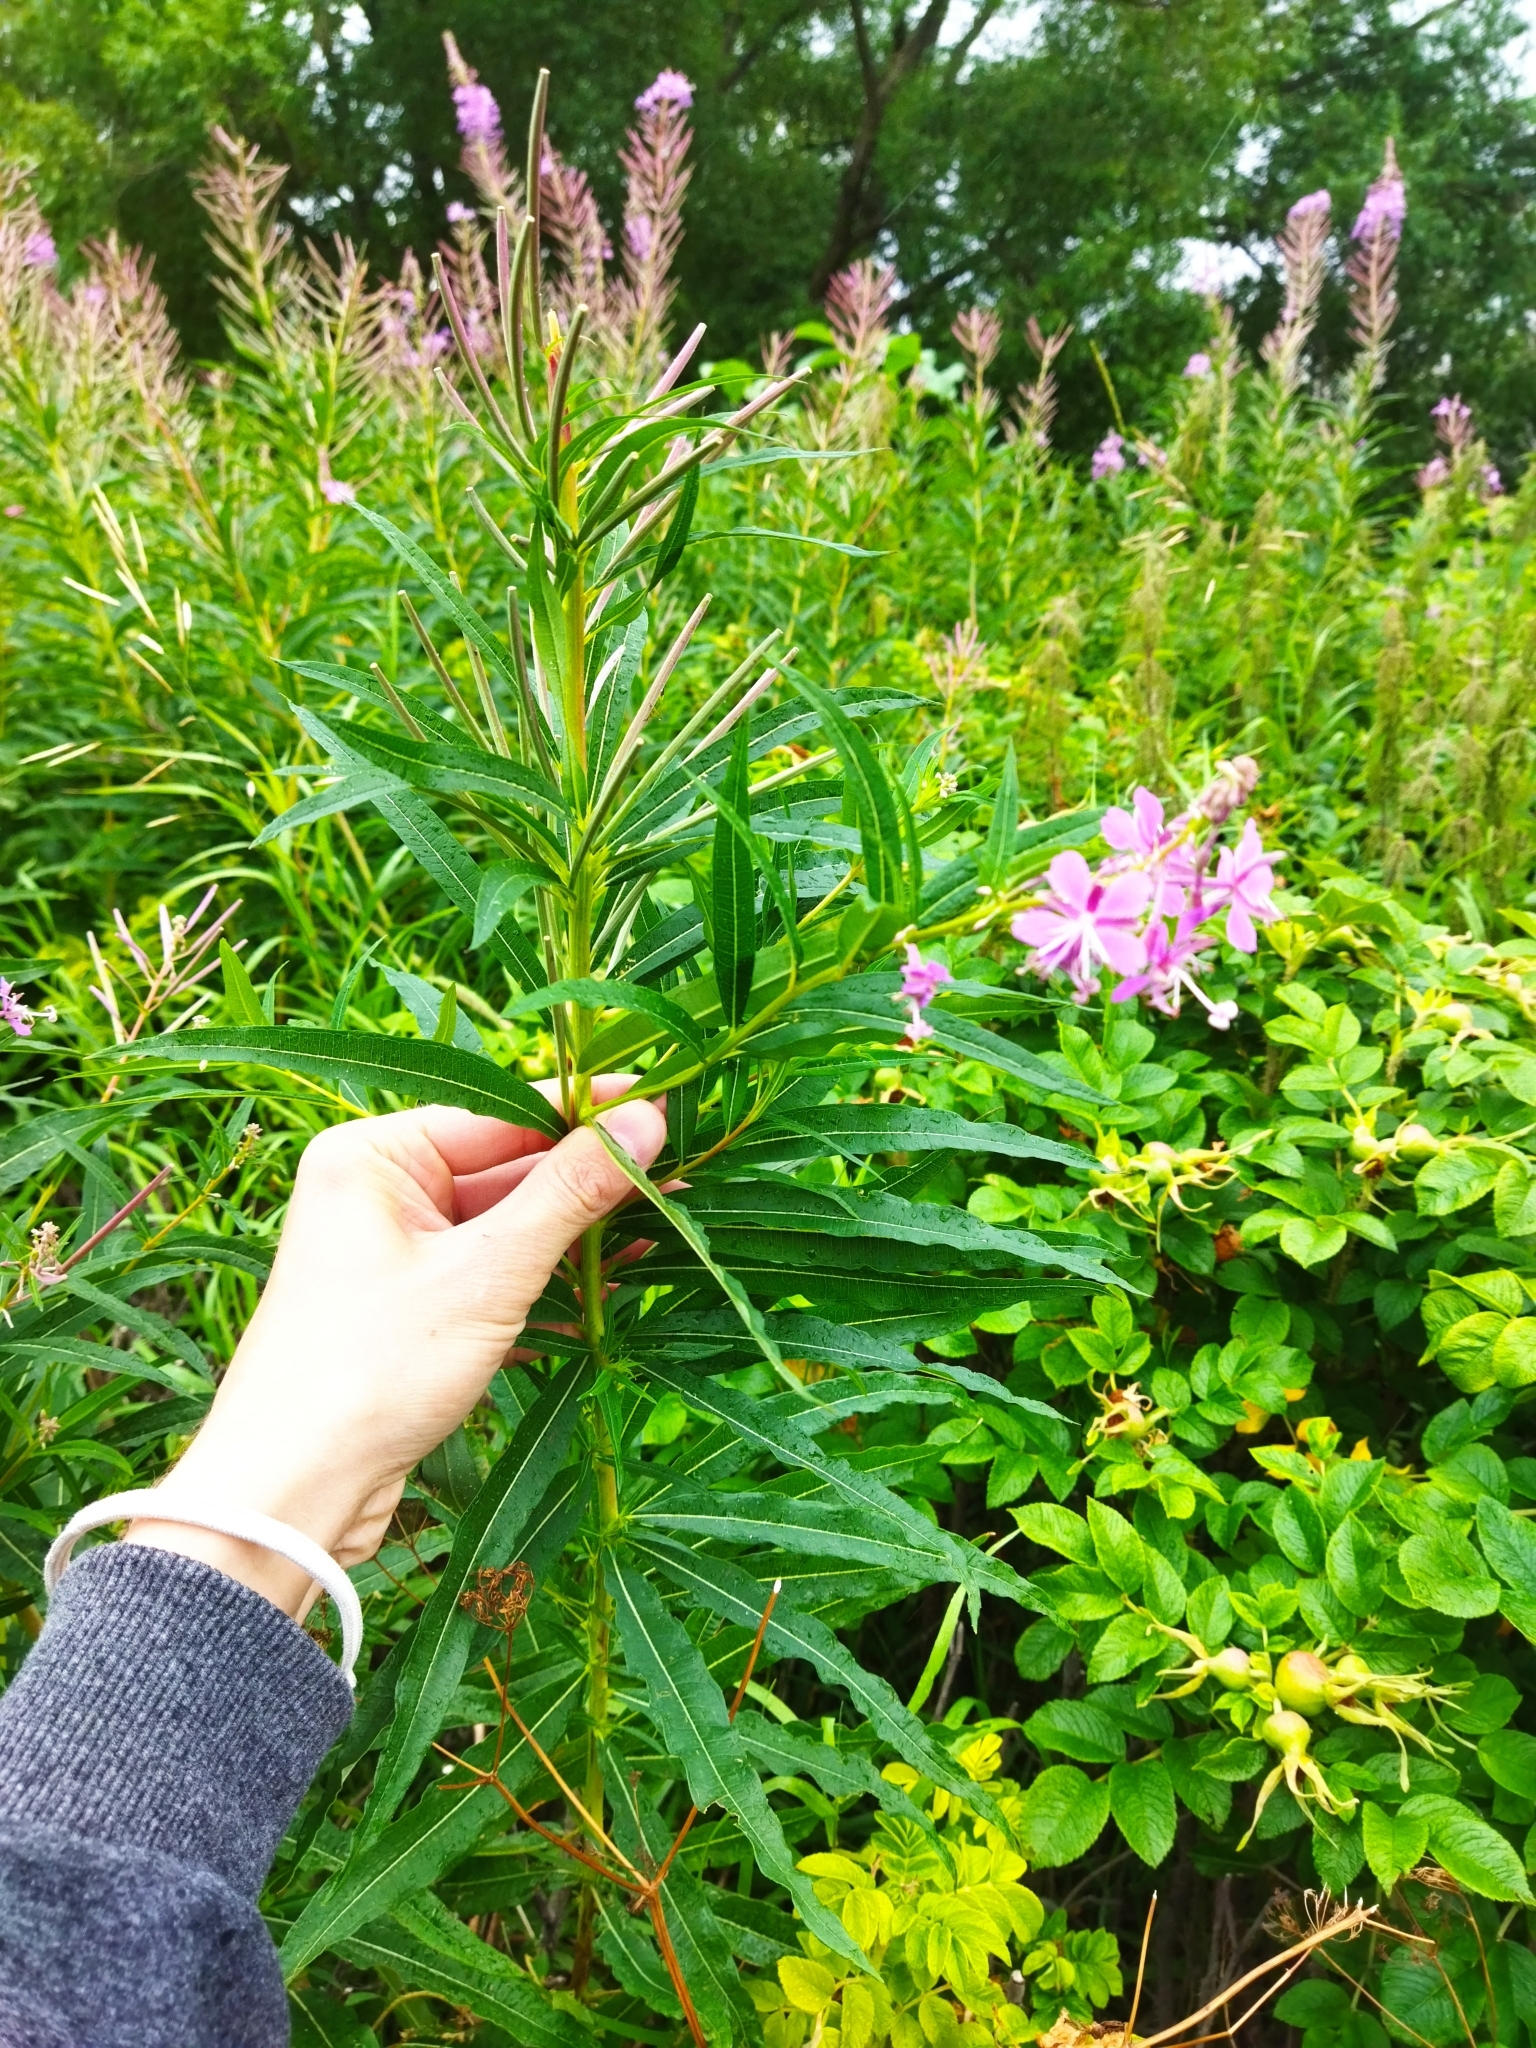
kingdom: Plantae
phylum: Tracheophyta
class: Magnoliopsida
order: Myrtales
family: Onagraceae
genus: Chamaenerion
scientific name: Chamaenerion angustifolium
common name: Fireweed
